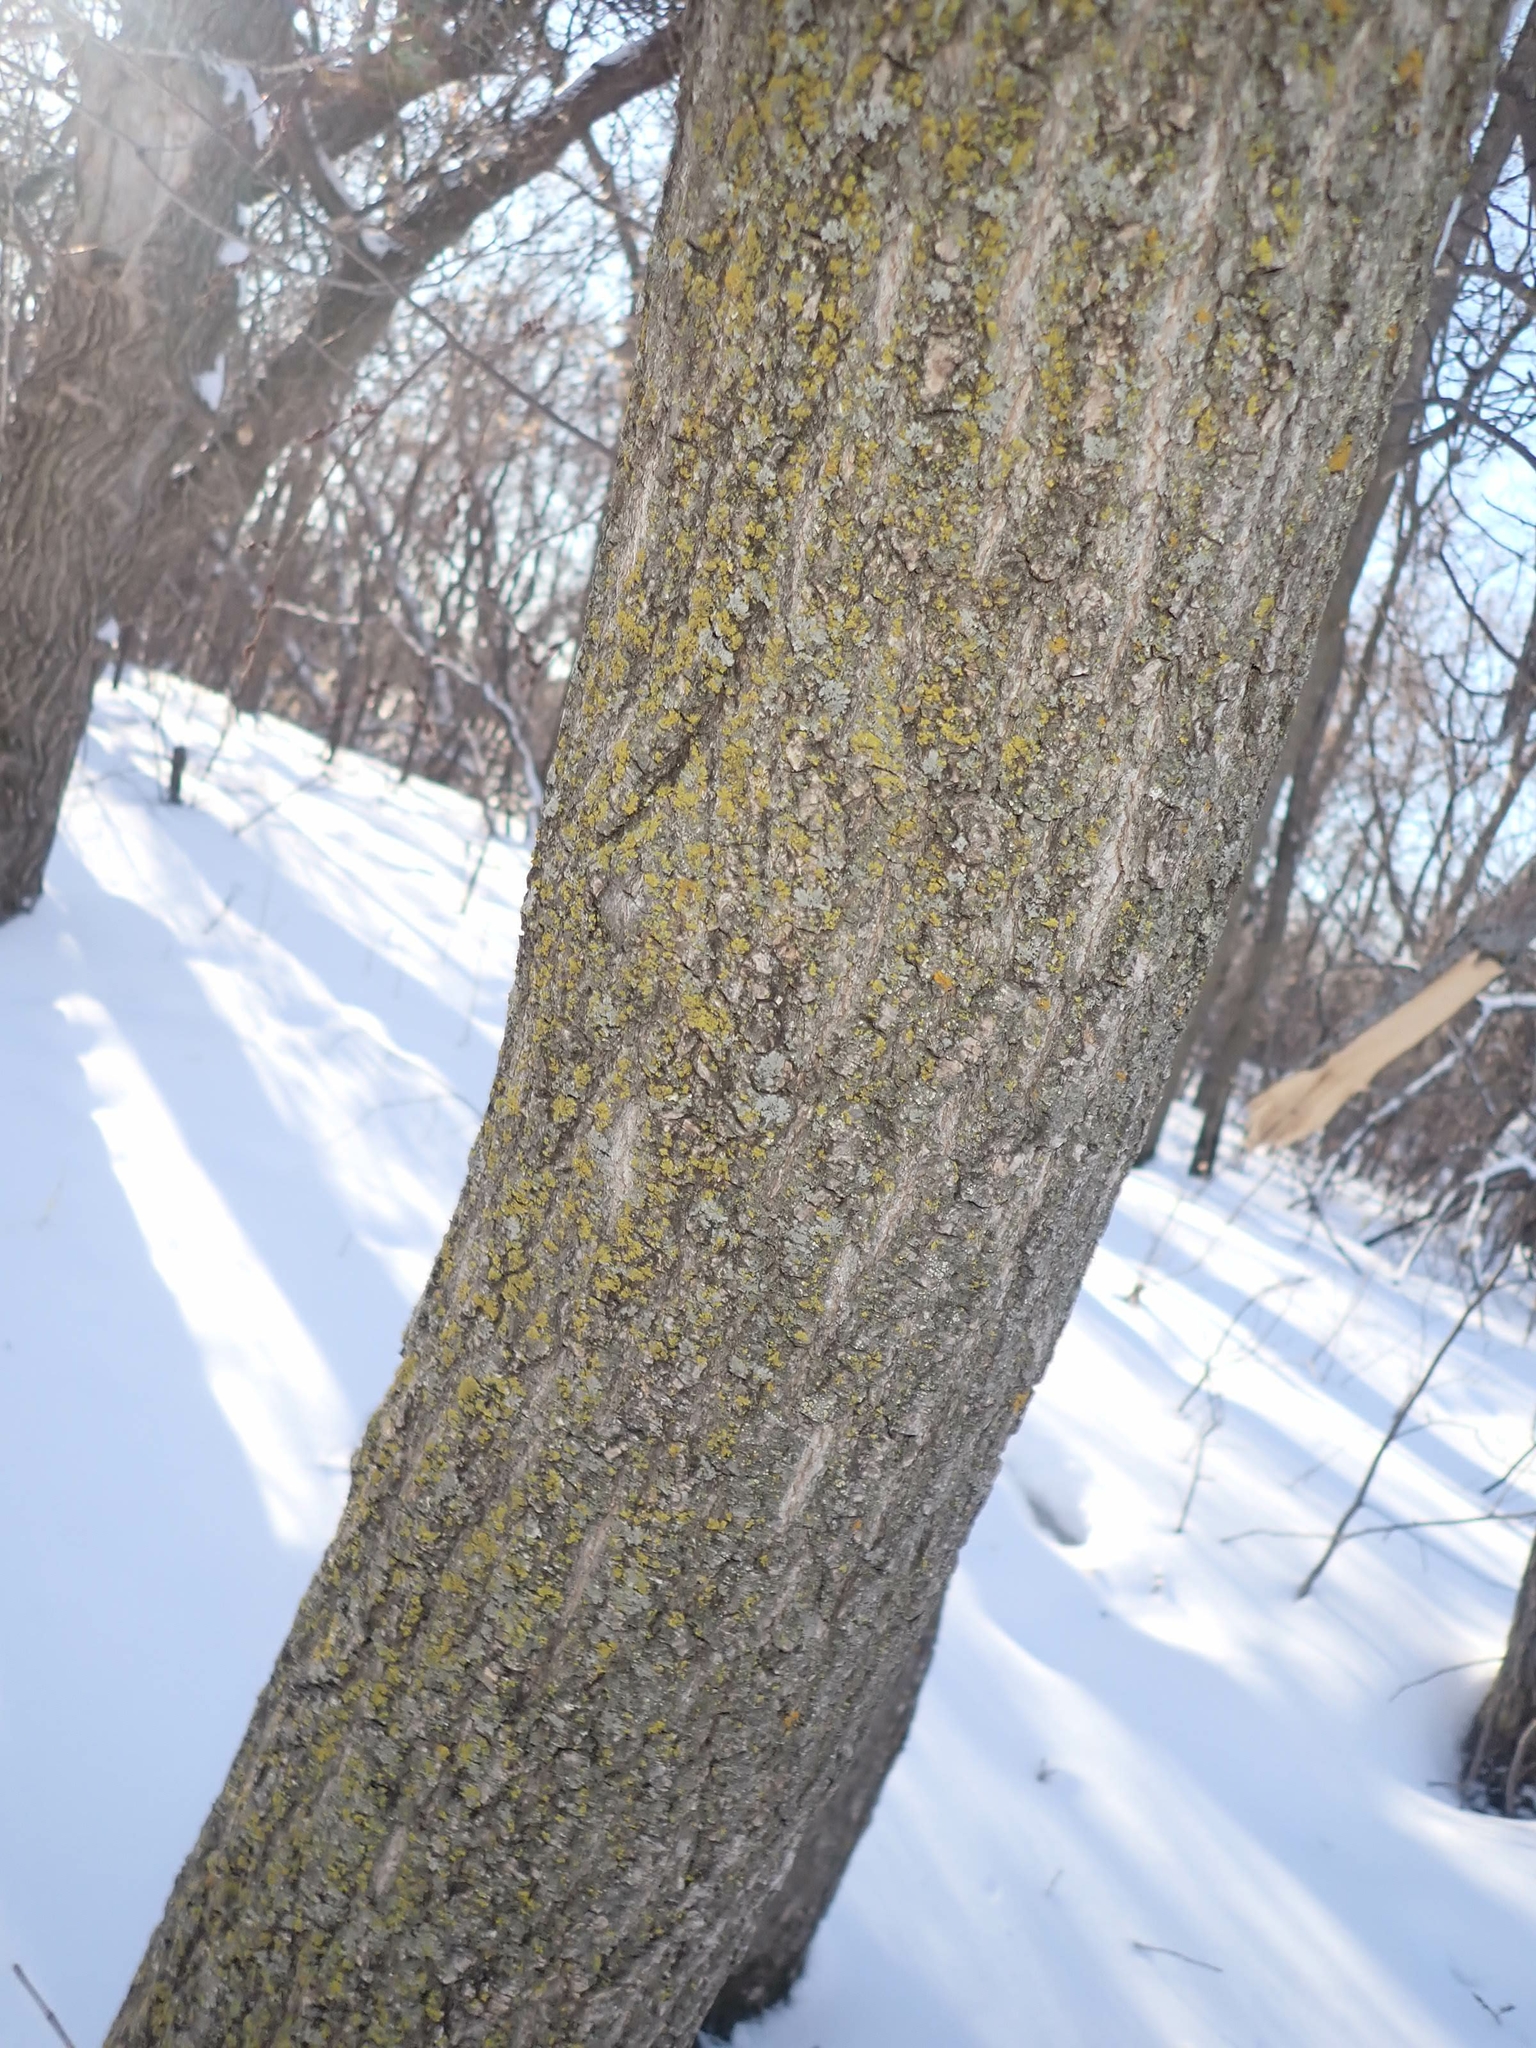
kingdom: Plantae
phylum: Tracheophyta
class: Magnoliopsida
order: Sapindales
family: Sapindaceae
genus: Acer
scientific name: Acer negundo
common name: Ashleaf maple
